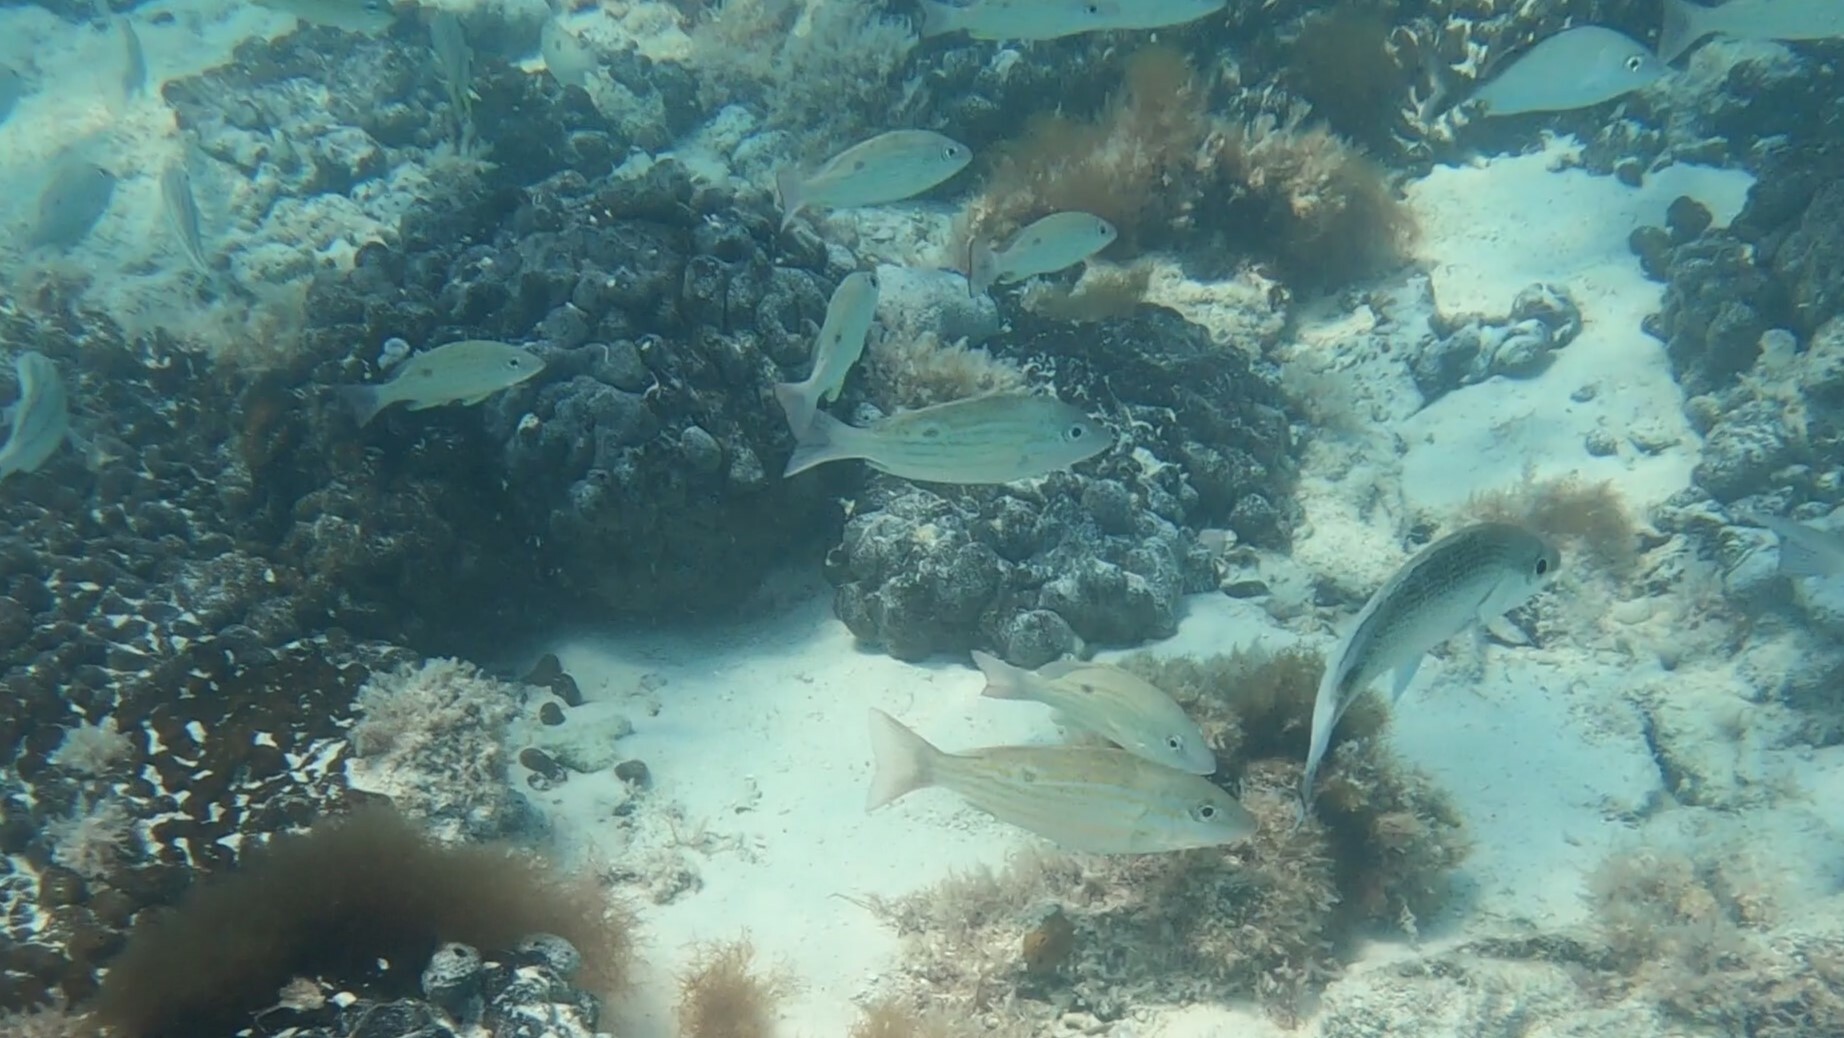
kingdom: Animalia
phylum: Chordata
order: Perciformes
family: Lutjanidae
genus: Lutjanus
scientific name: Lutjanus synagris
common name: Lane snapper
